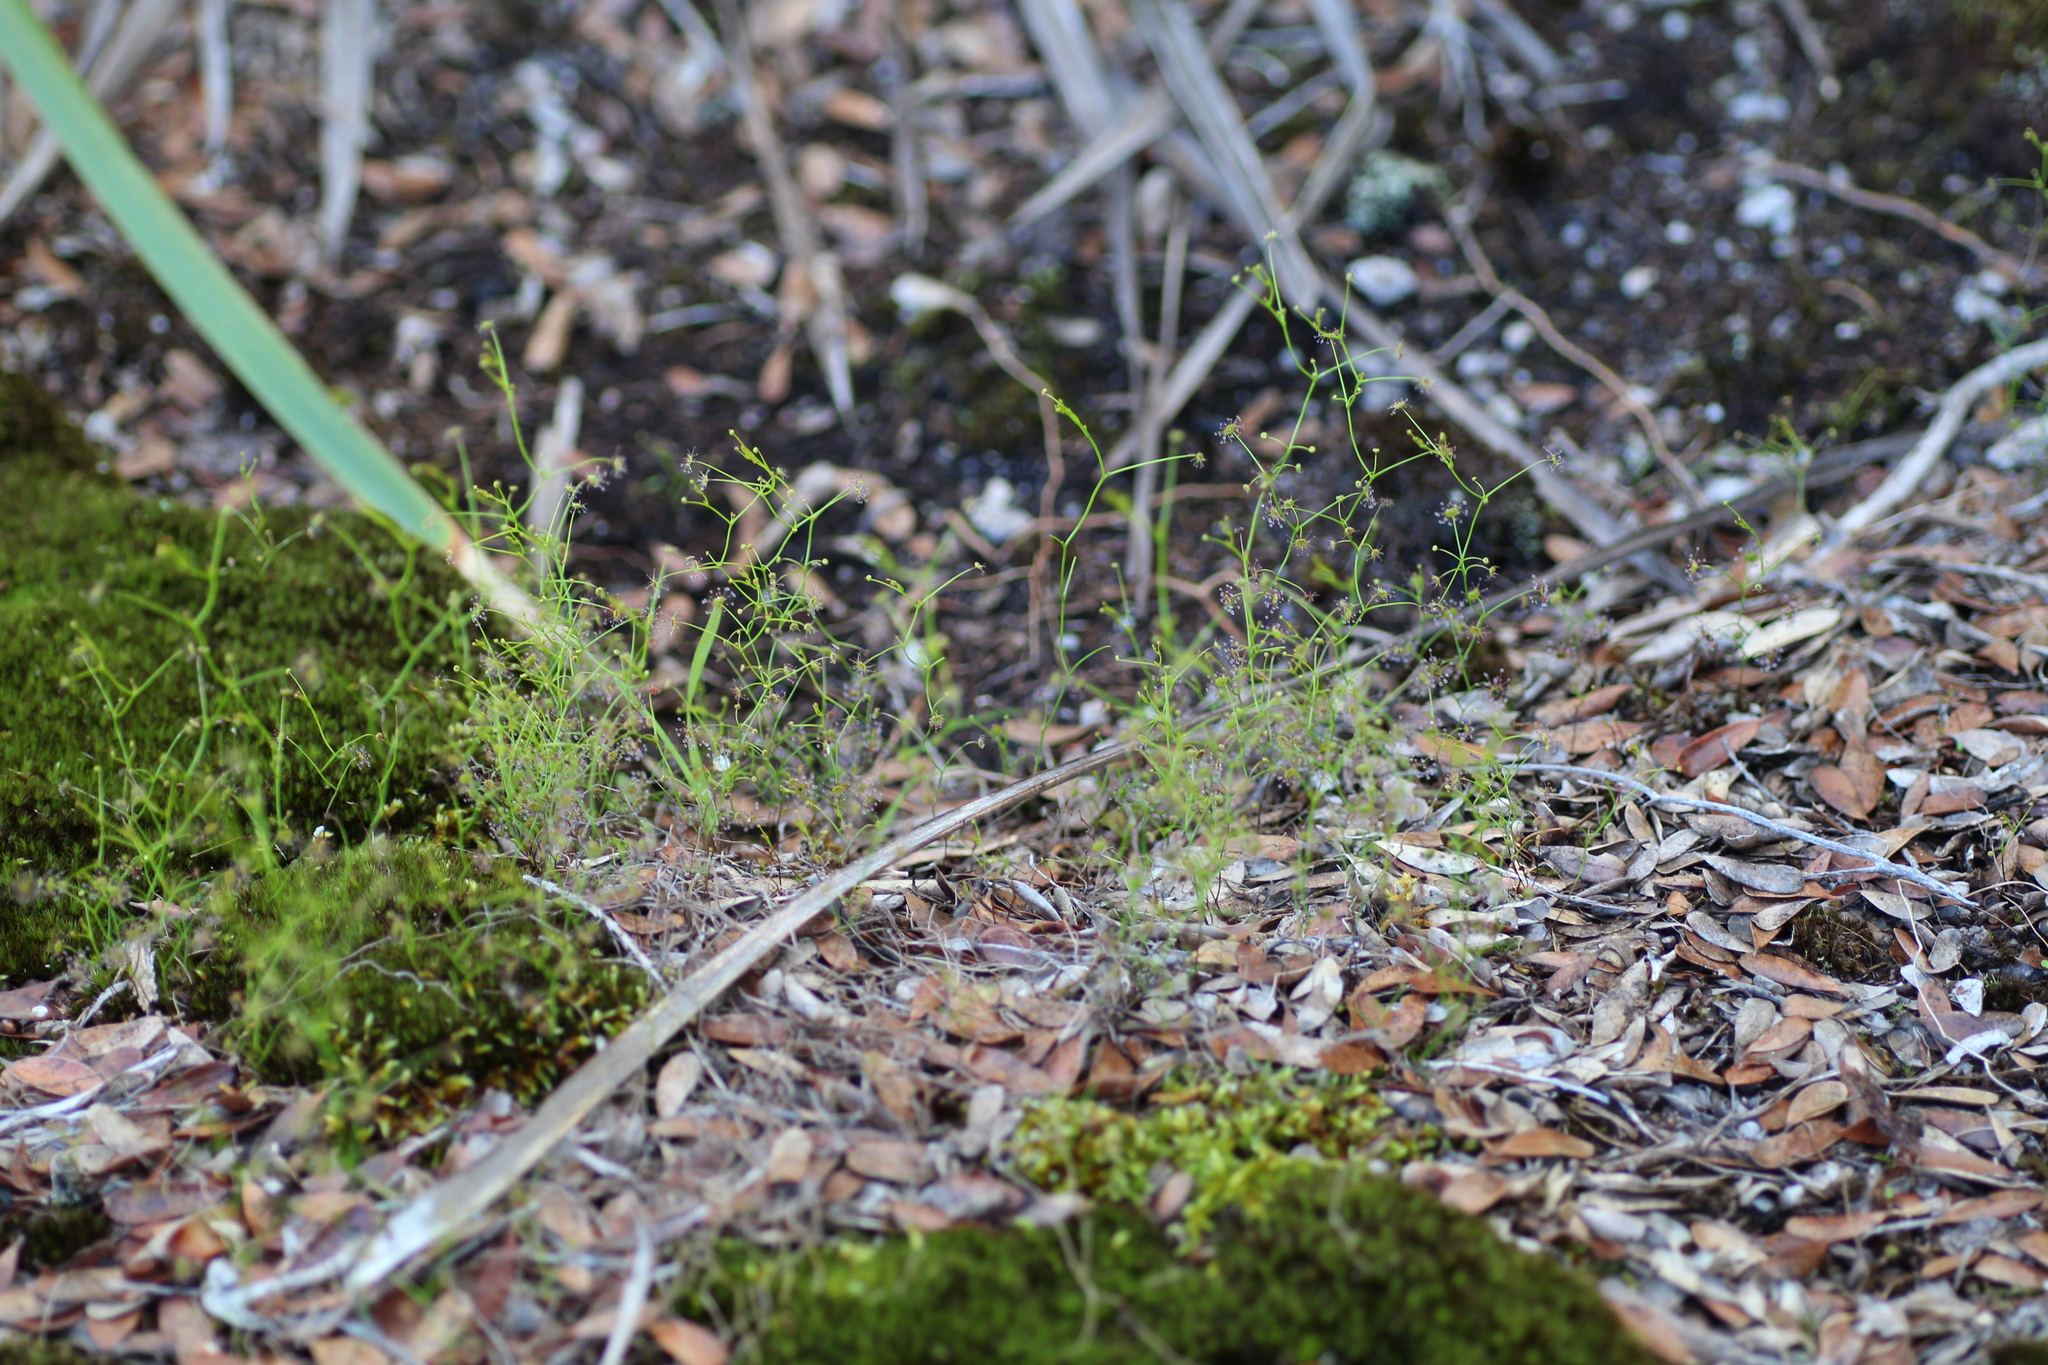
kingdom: Plantae
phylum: Tracheophyta
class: Magnoliopsida
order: Caryophyllales
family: Droseraceae
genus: Drosera
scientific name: Drosera modesta
